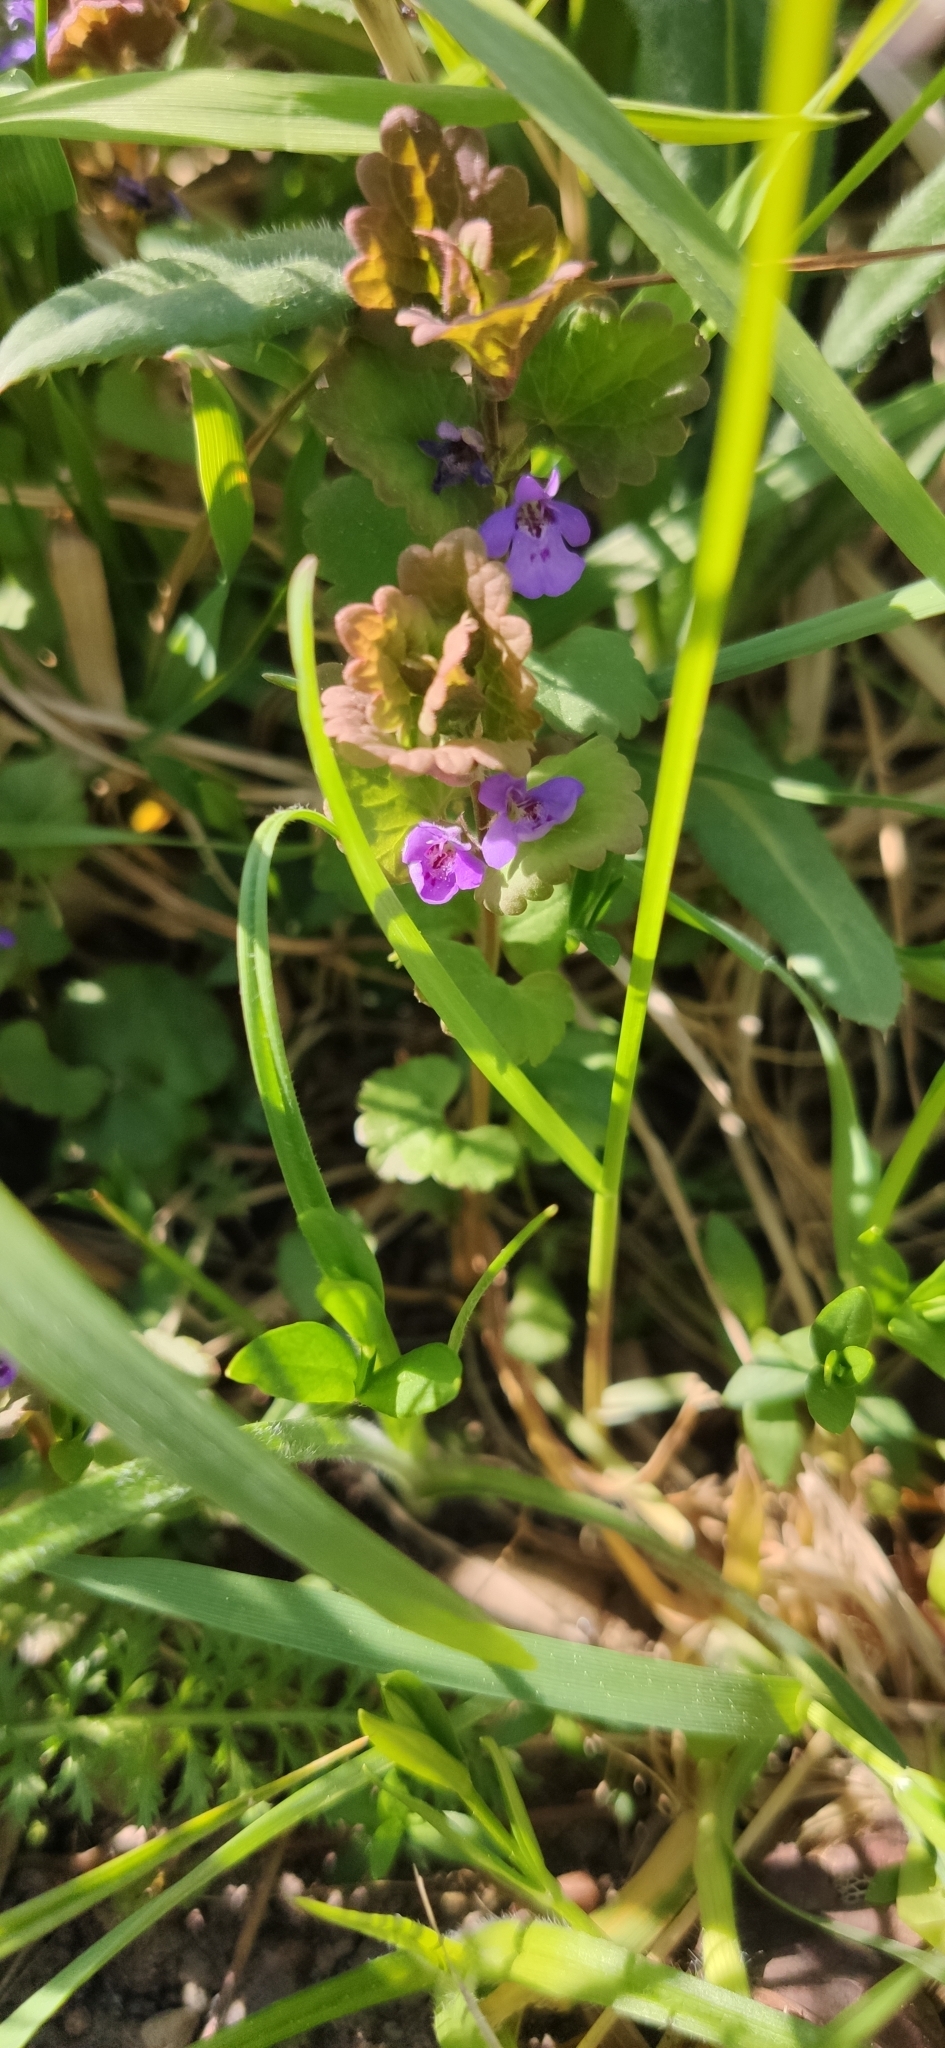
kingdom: Plantae
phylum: Tracheophyta
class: Magnoliopsida
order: Lamiales
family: Lamiaceae
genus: Glechoma
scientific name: Glechoma hederacea
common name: Ground ivy
